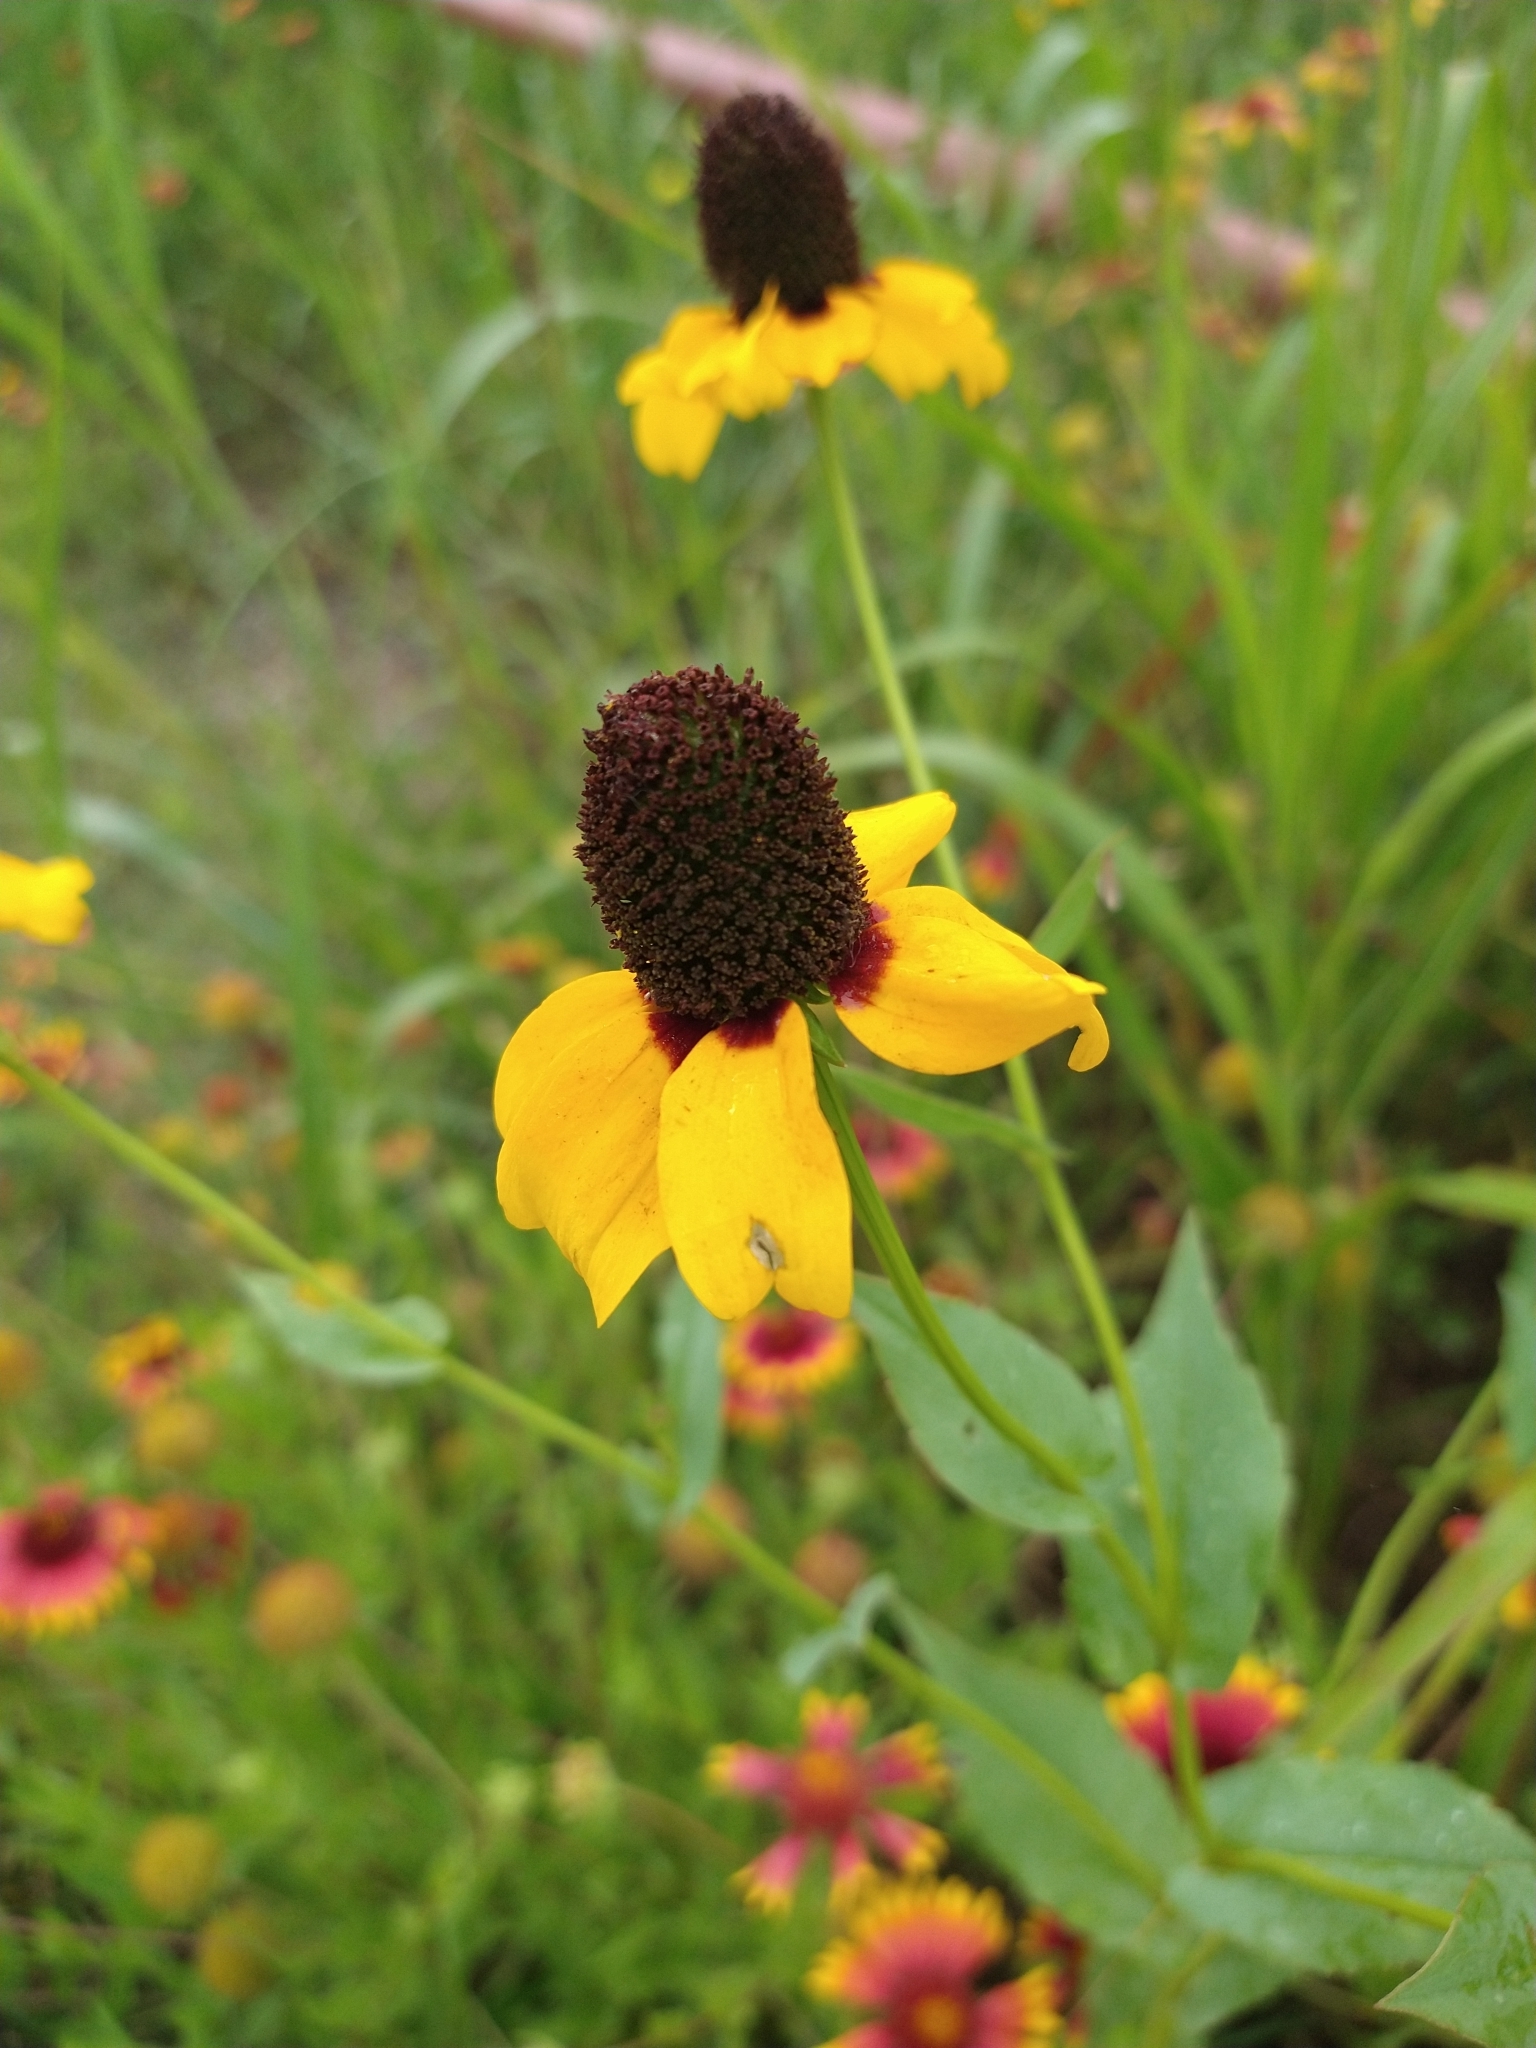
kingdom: Plantae
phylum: Tracheophyta
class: Magnoliopsida
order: Asterales
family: Asteraceae
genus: Rudbeckia
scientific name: Rudbeckia amplexicaulis
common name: Clasping-leaf coneflower
